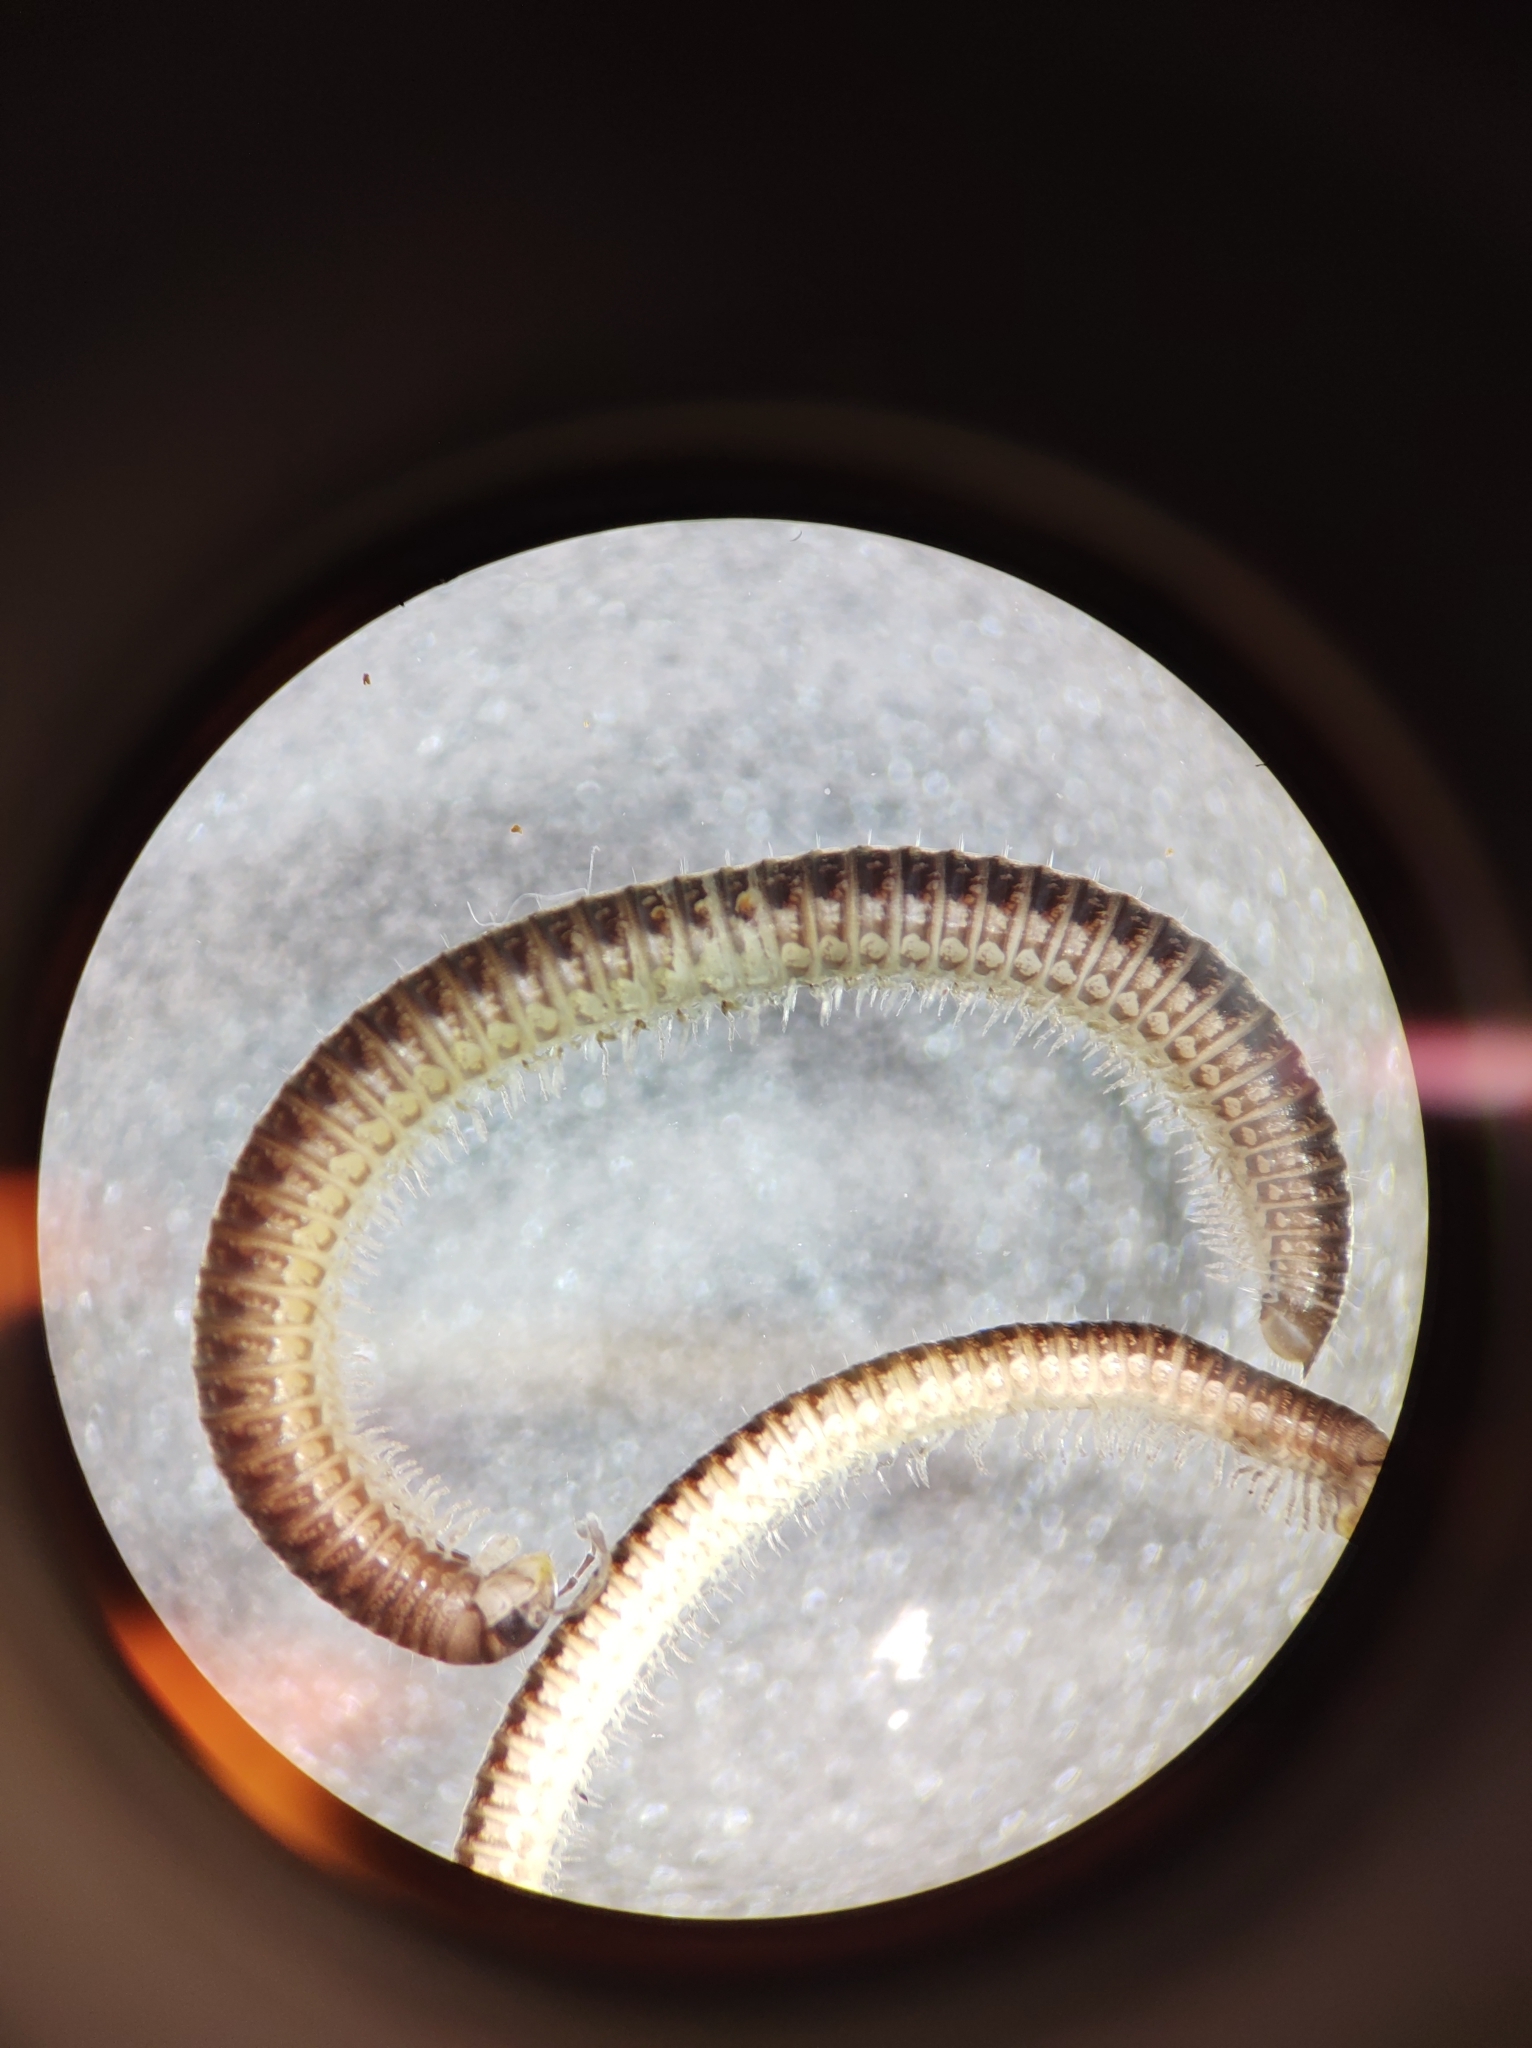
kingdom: Animalia
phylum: Arthropoda
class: Diplopoda
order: Julida
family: Julidae
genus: Ophyiulus
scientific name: Ophyiulus pilosus
